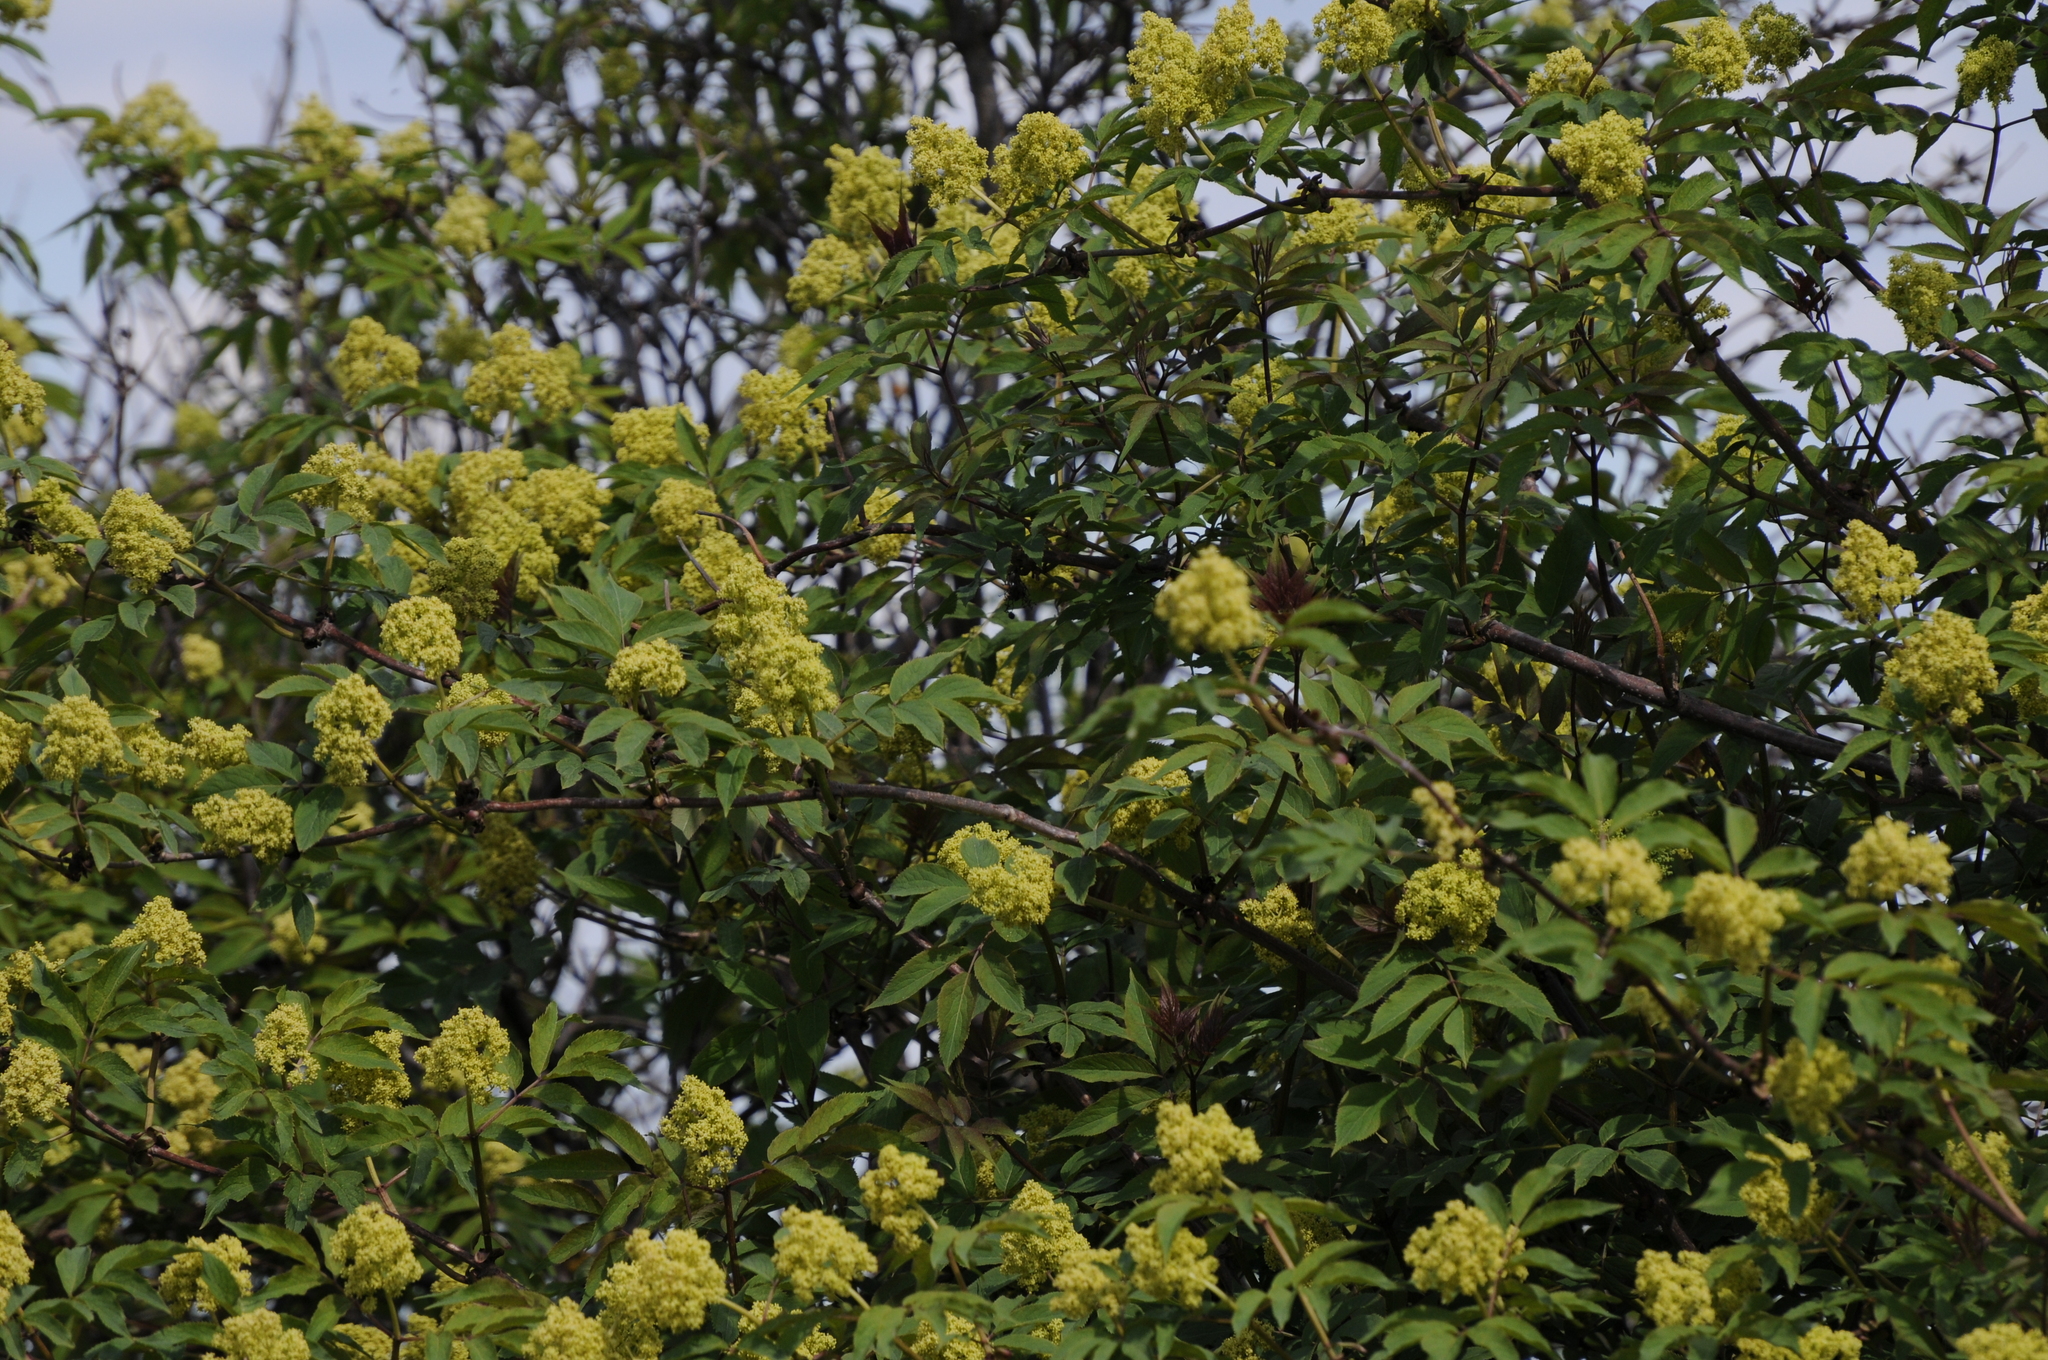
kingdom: Plantae
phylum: Tracheophyta
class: Magnoliopsida
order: Dipsacales
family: Viburnaceae
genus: Sambucus
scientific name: Sambucus racemosa
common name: Red-berried elder
